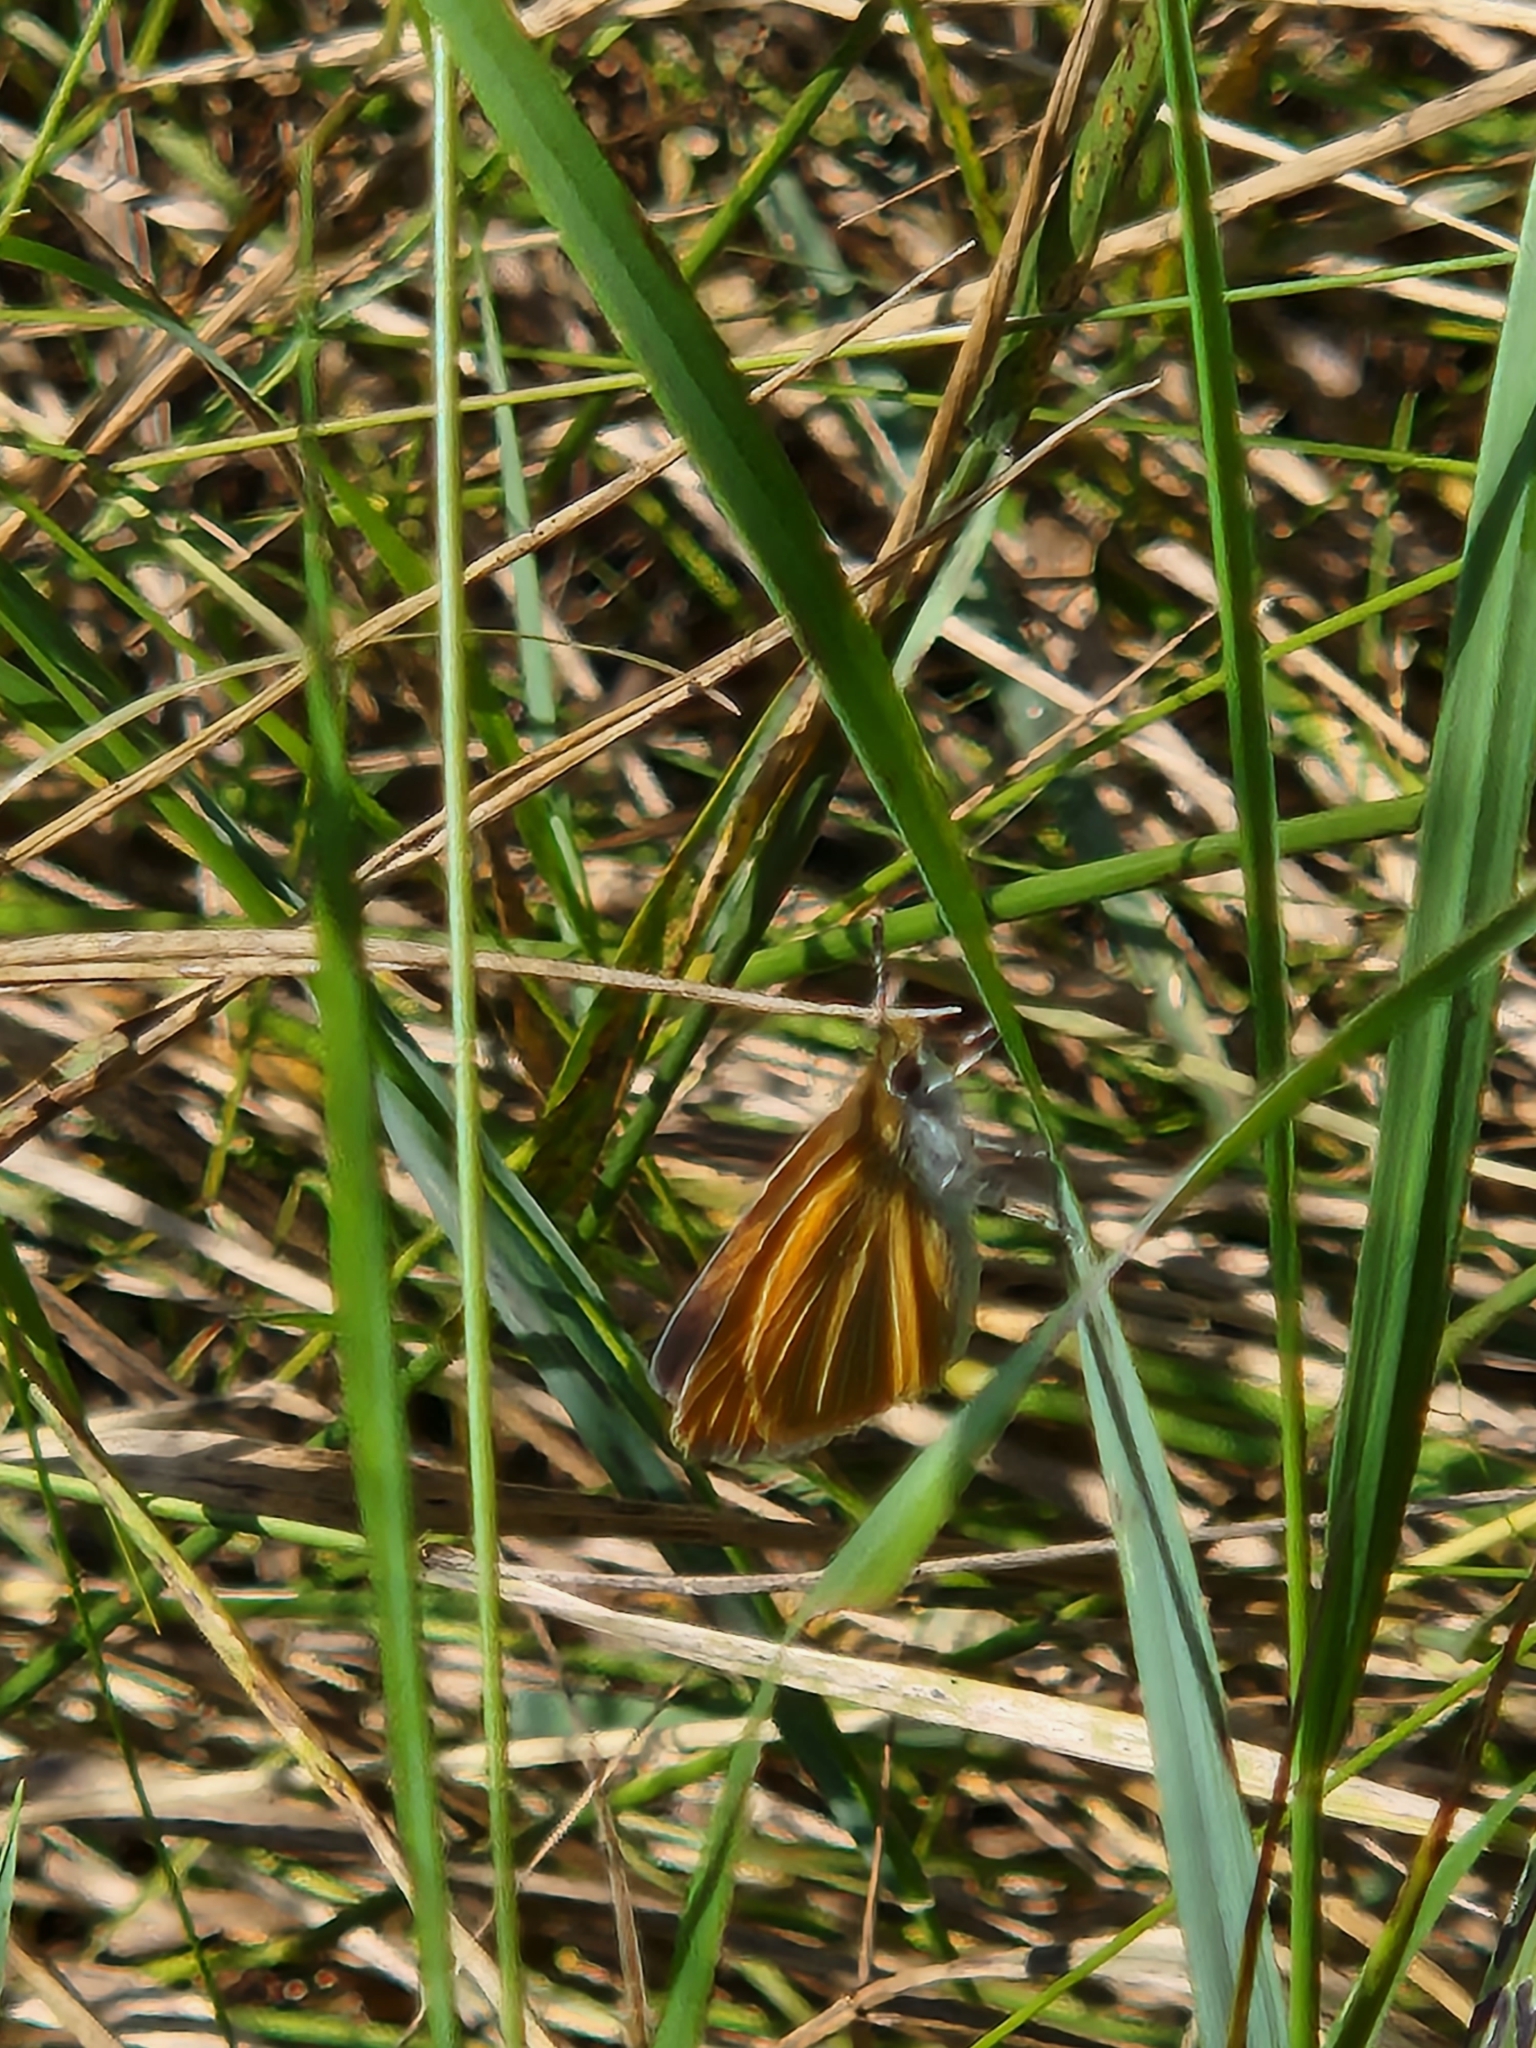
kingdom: Animalia
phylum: Arthropoda
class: Insecta
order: Lepidoptera
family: Hesperiidae
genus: Ancyloxypha
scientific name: Ancyloxypha numitor
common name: Least skipper
